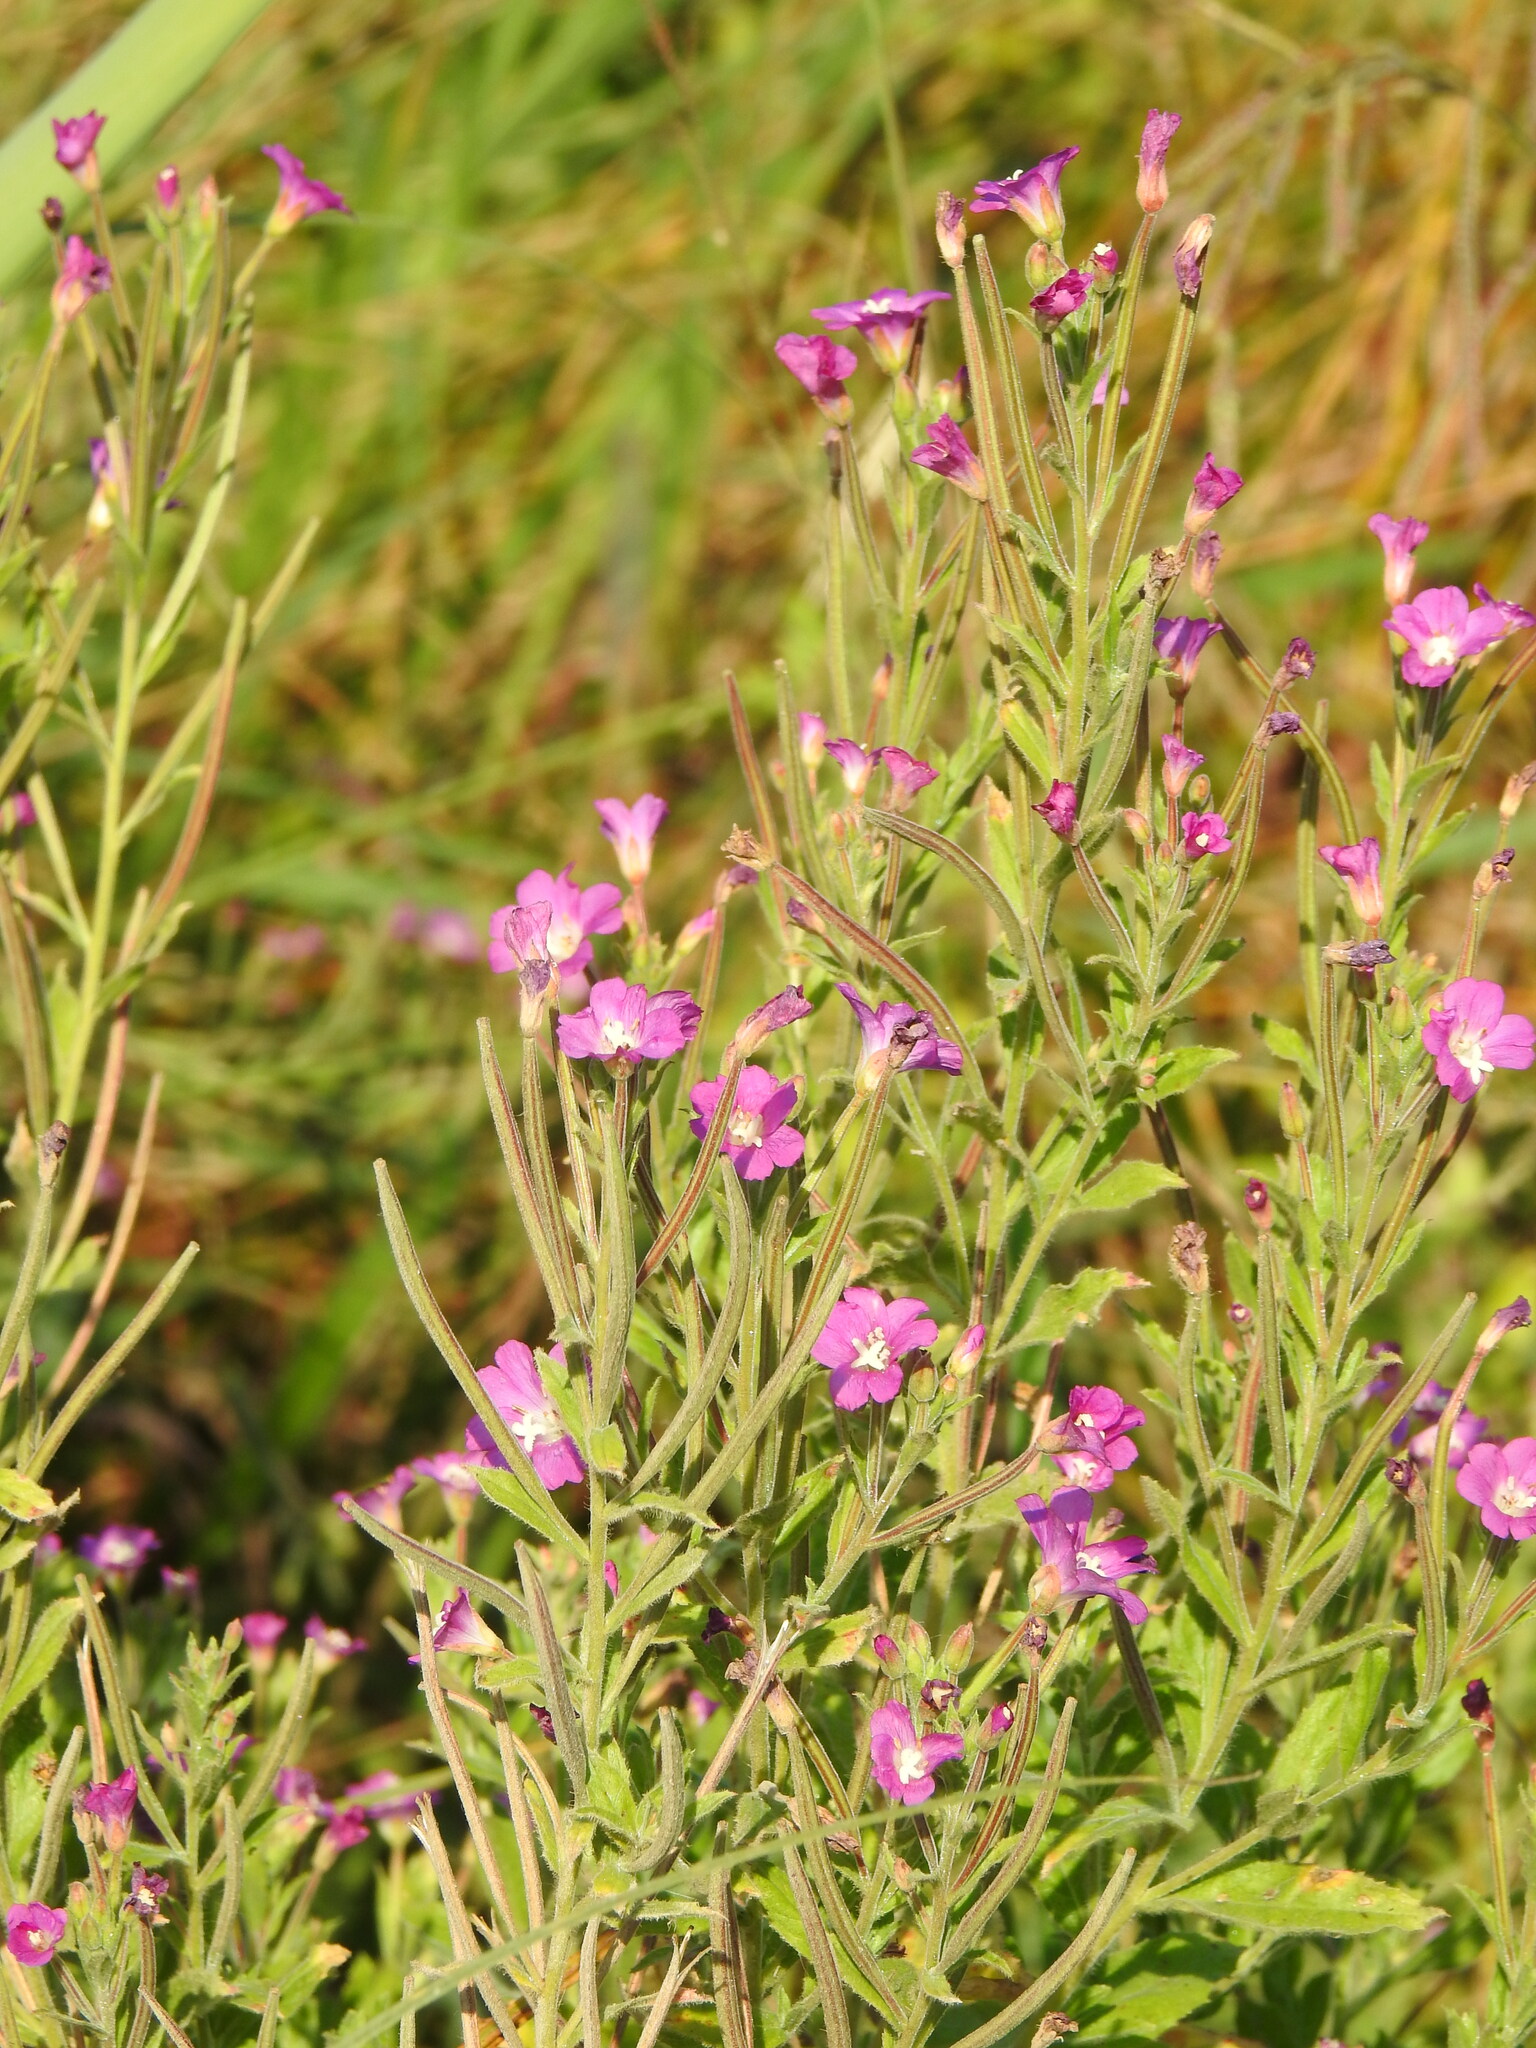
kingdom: Plantae
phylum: Tracheophyta
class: Magnoliopsida
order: Myrtales
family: Onagraceae
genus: Epilobium
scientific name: Epilobium hirsutum
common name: Great willowherb
